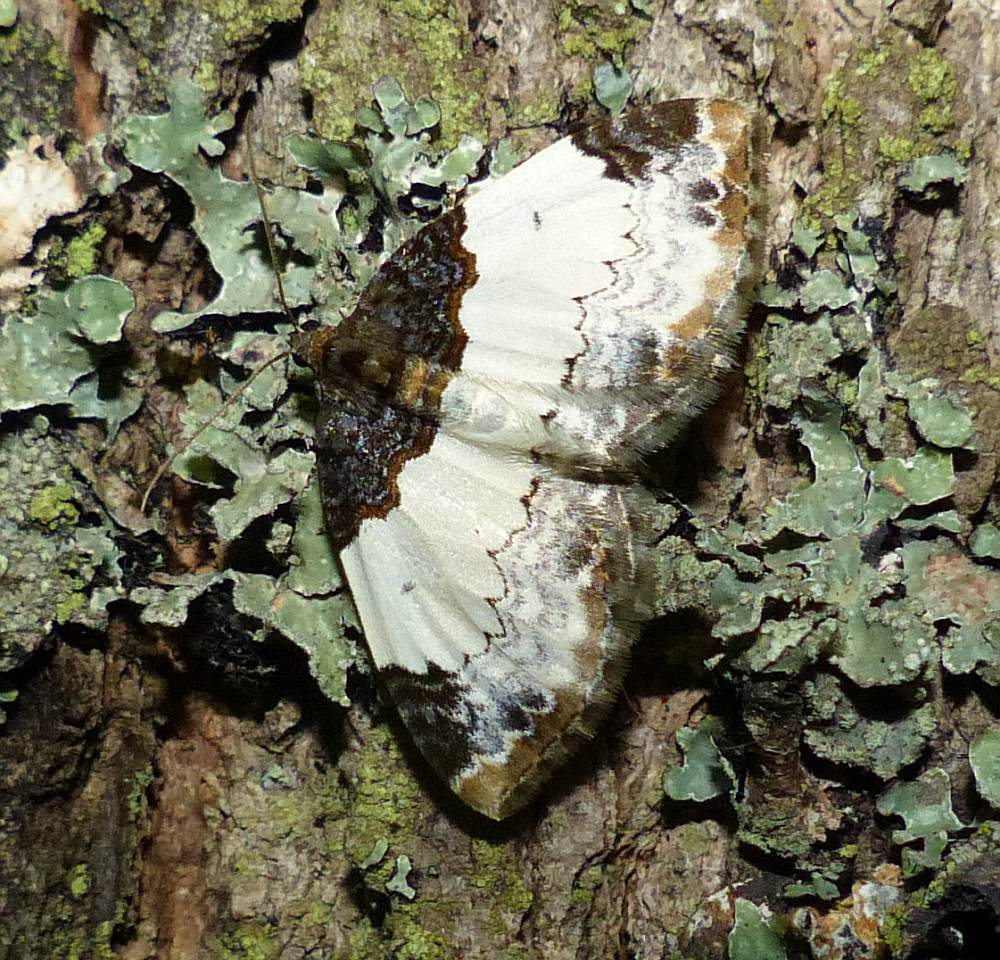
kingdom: Animalia
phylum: Arthropoda
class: Insecta
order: Lepidoptera
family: Geometridae
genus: Mesoleuca
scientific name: Mesoleuca ruficillata
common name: White-ribboned carpet moth
